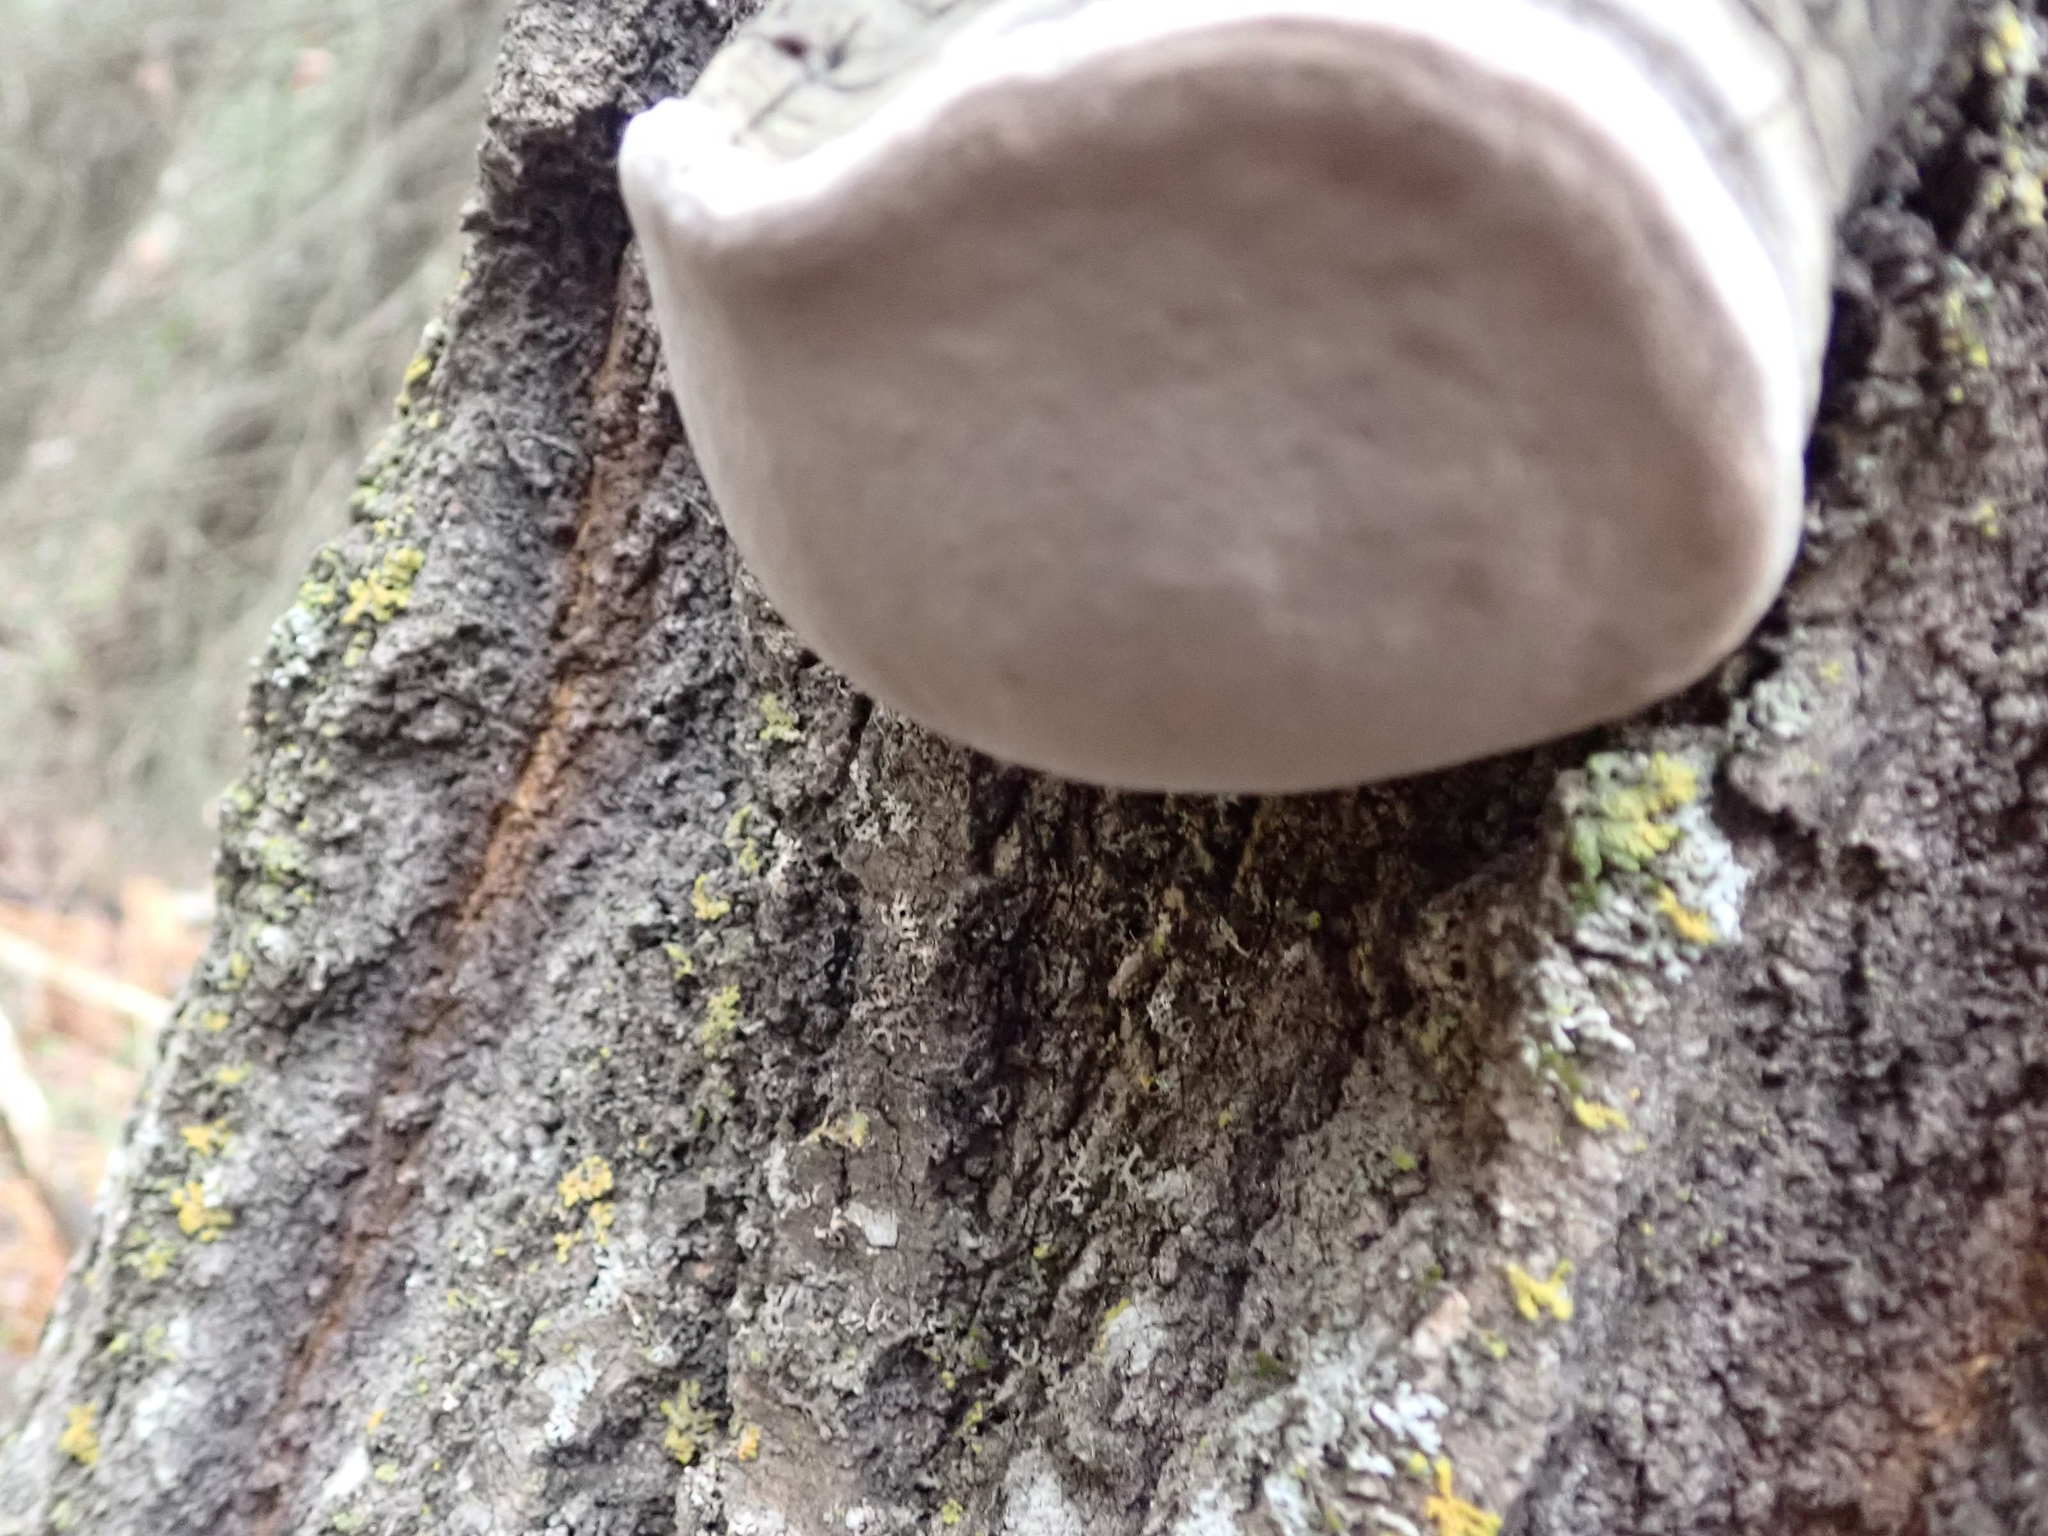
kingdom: Fungi
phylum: Basidiomycota
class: Agaricomycetes
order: Hymenochaetales
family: Hymenochaetaceae
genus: Phellinus
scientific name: Phellinus tremulae
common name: Aspen bracket
